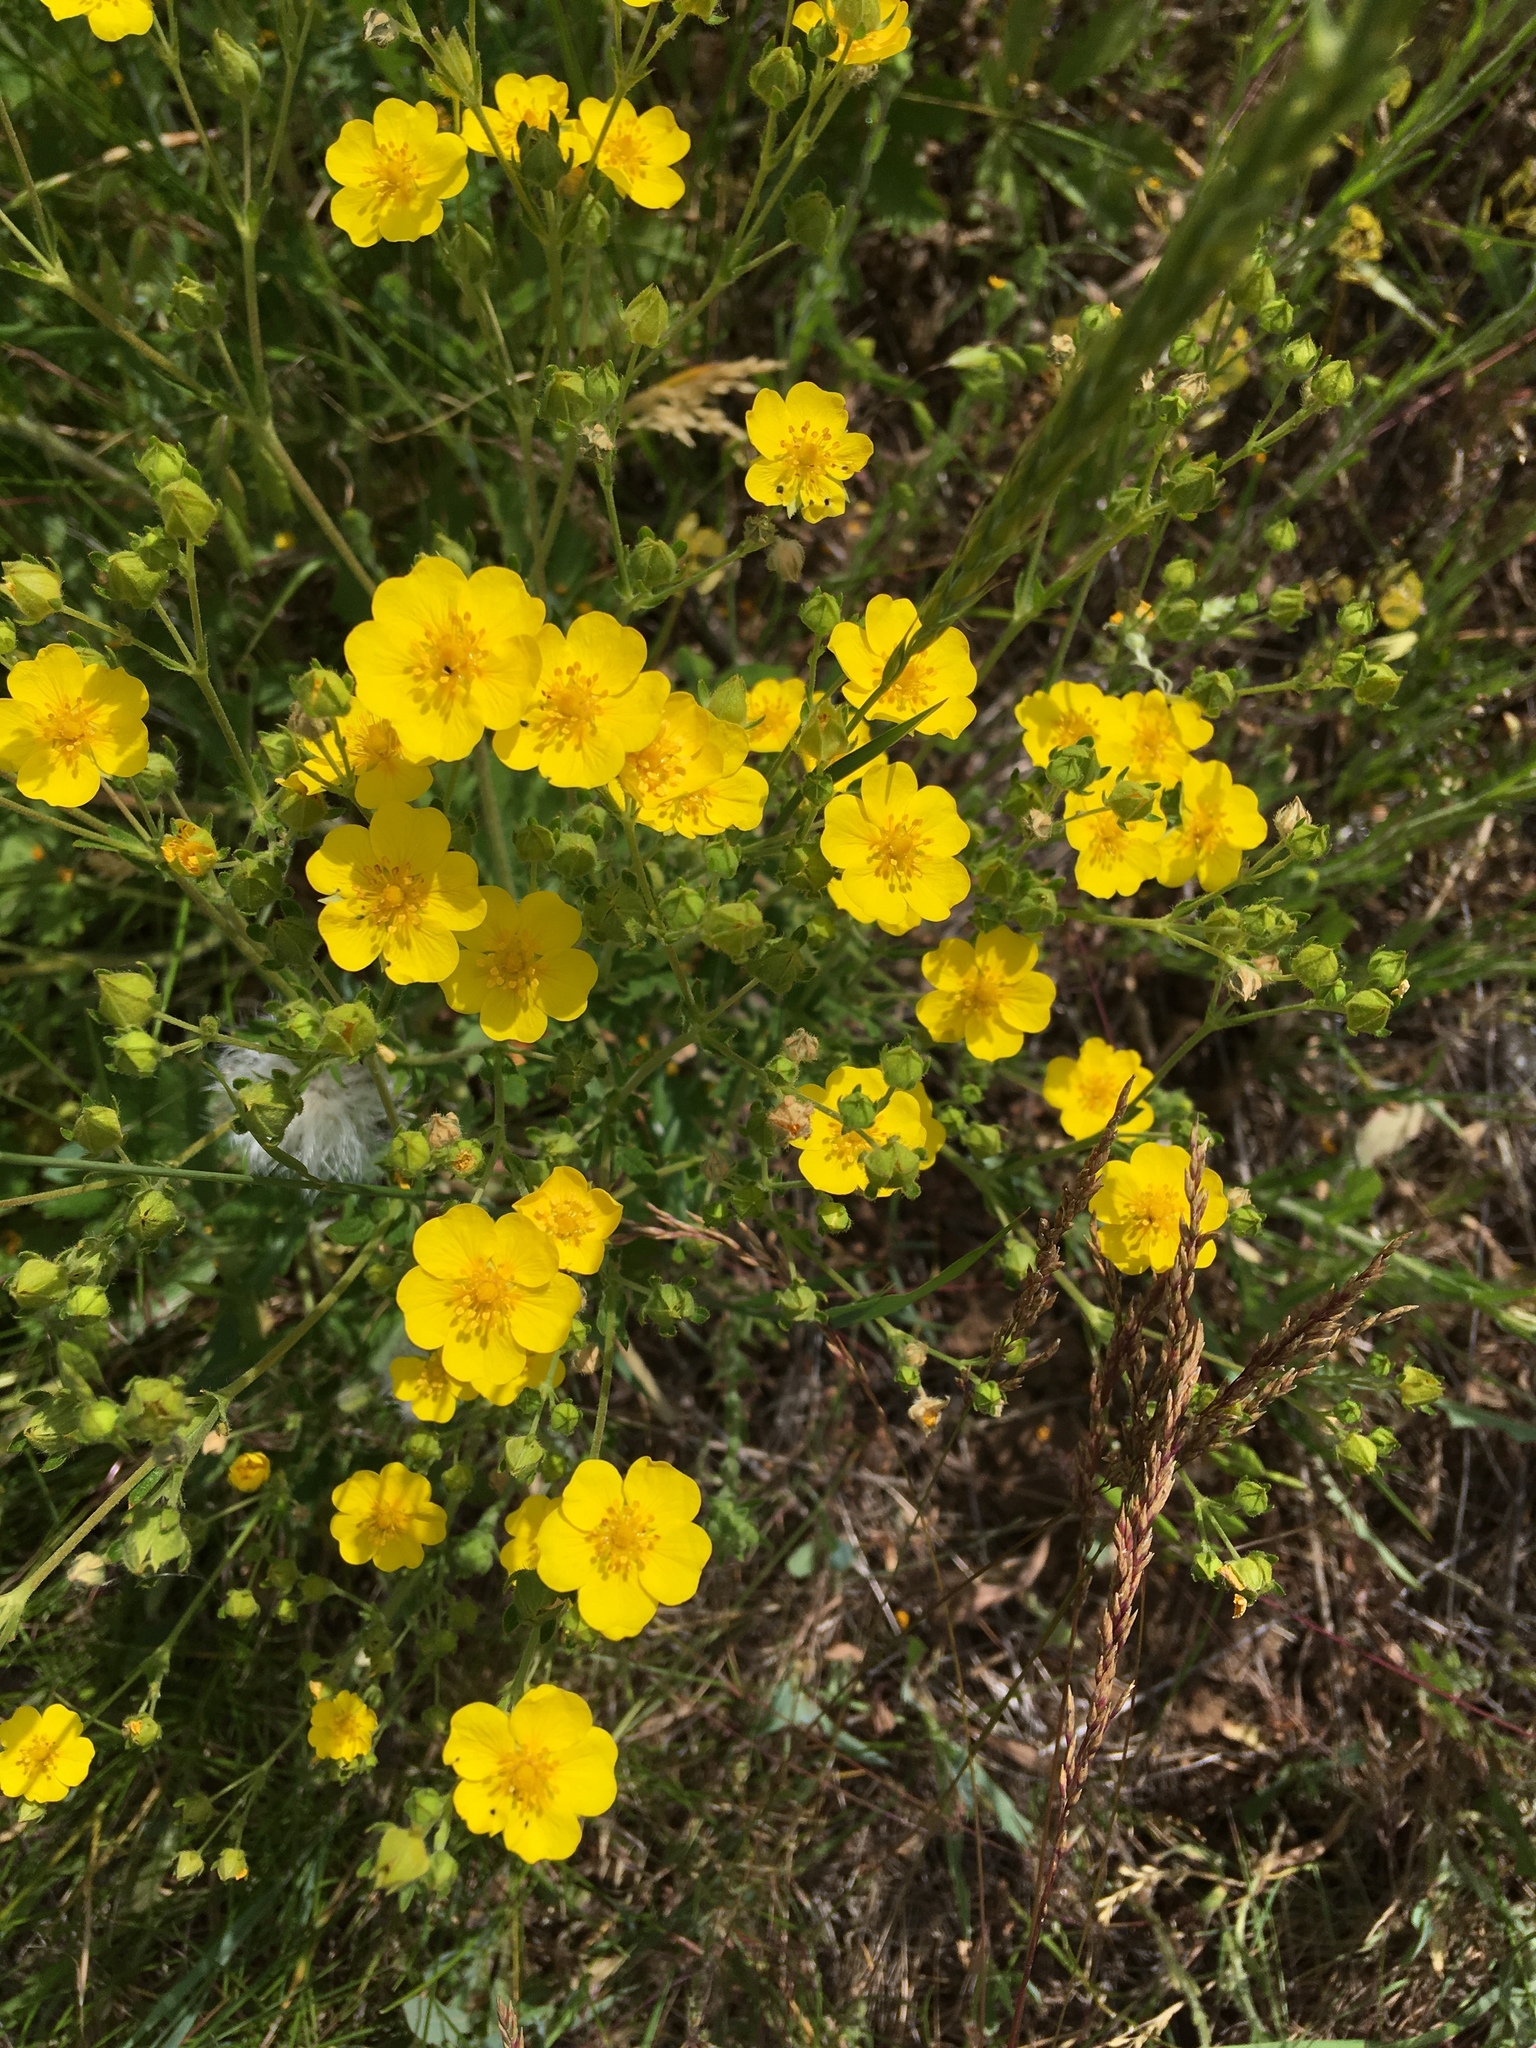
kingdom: Plantae
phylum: Tracheophyta
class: Magnoliopsida
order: Rosales
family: Rosaceae
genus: Potentilla
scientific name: Potentilla gracilis
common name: Graceful cinquefoil
